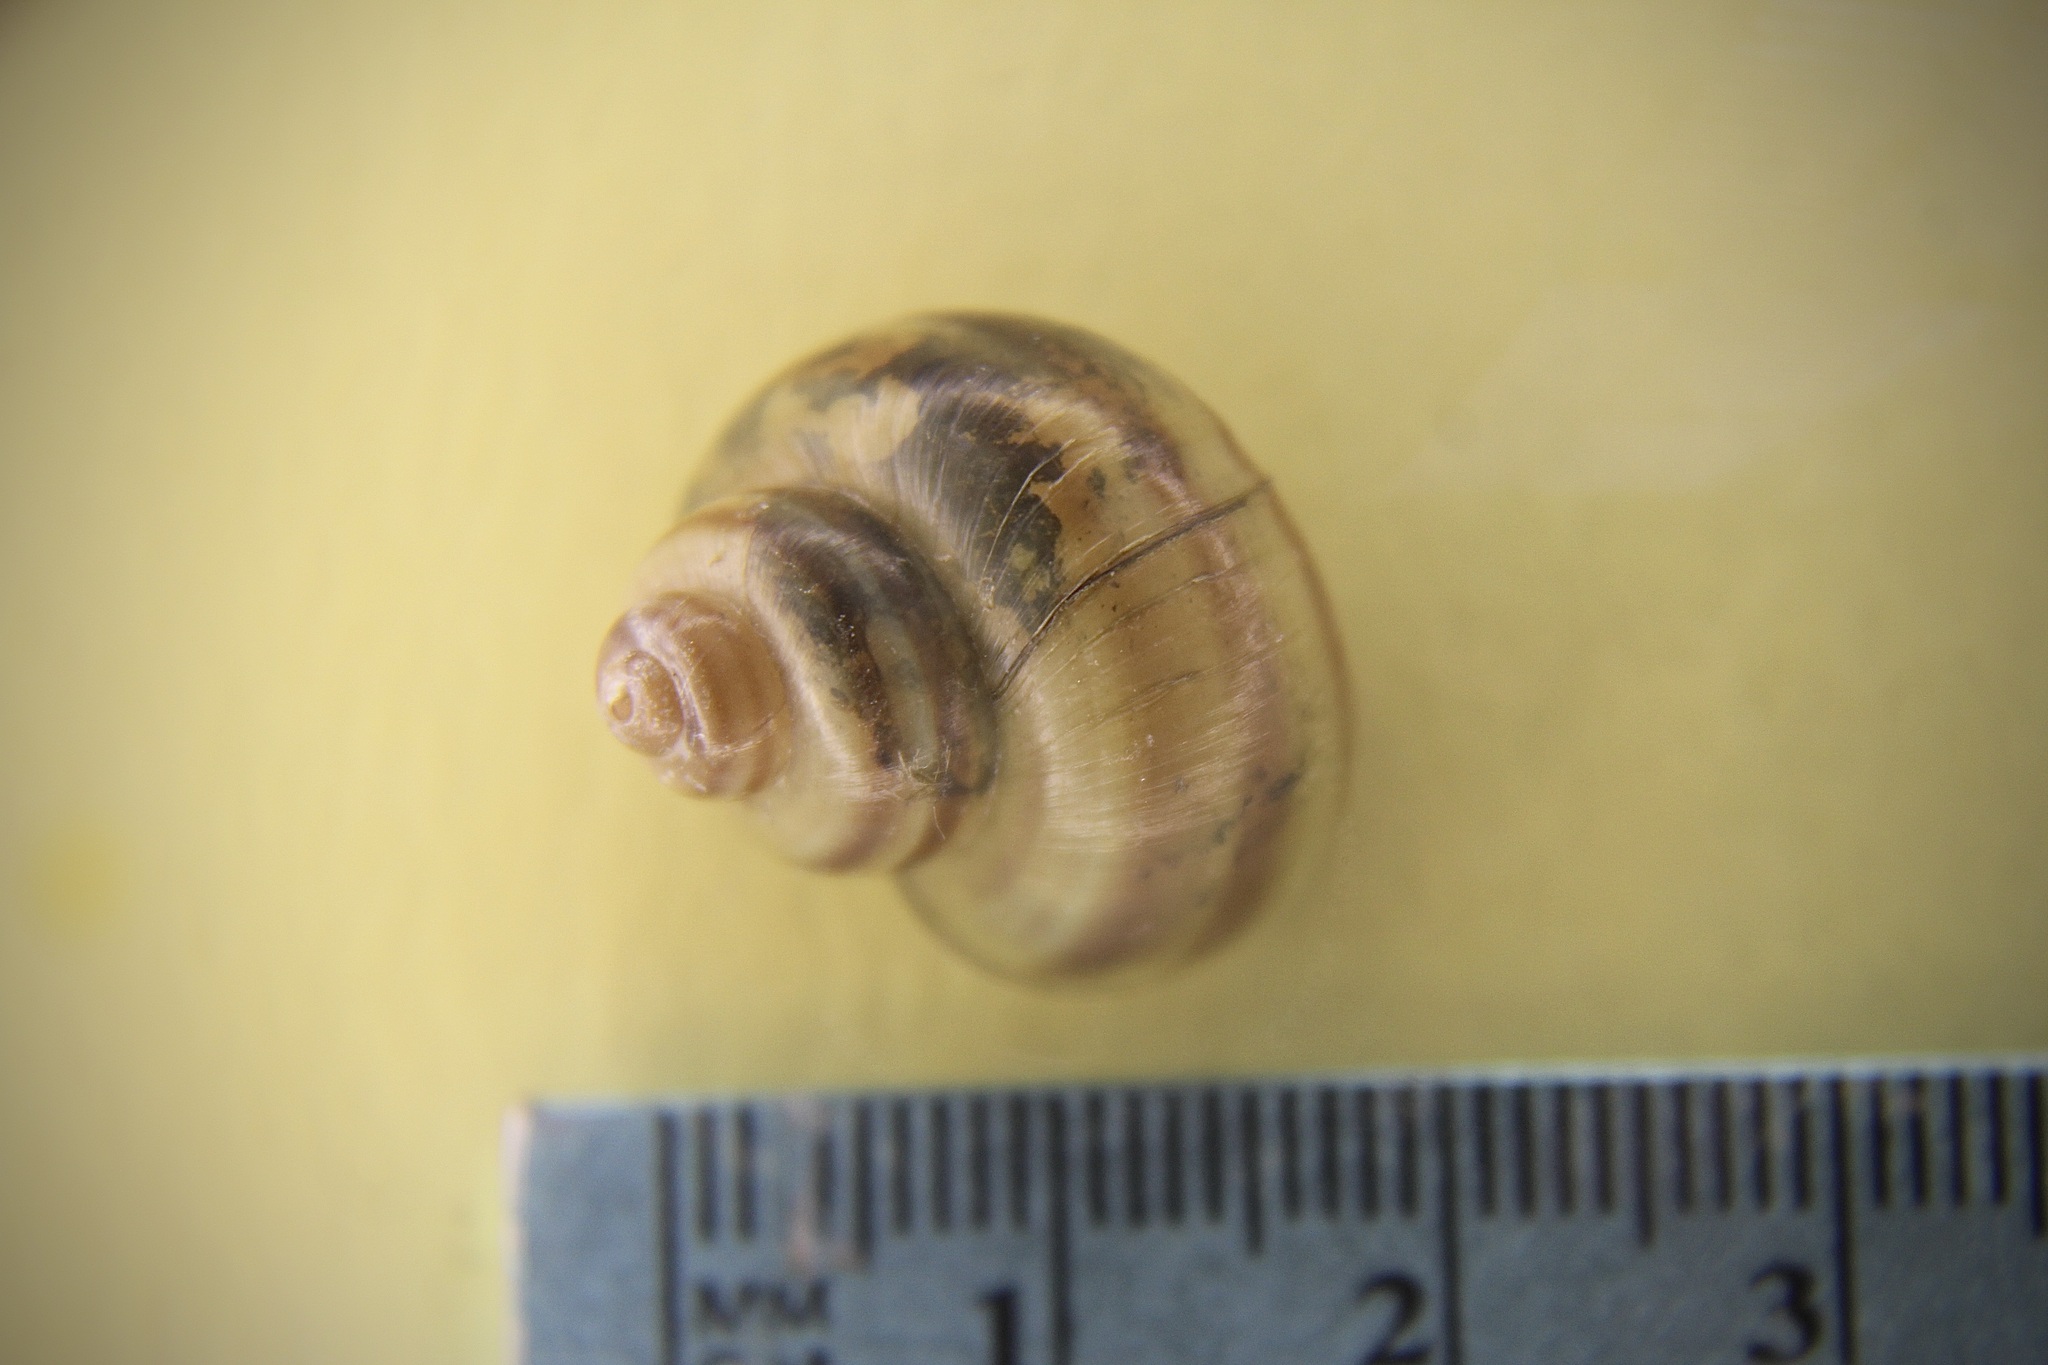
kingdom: Animalia
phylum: Mollusca
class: Gastropoda
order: Architaenioglossa
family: Viviparidae
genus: Callinina
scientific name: Callinina georgiana
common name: Banded mystery snail
